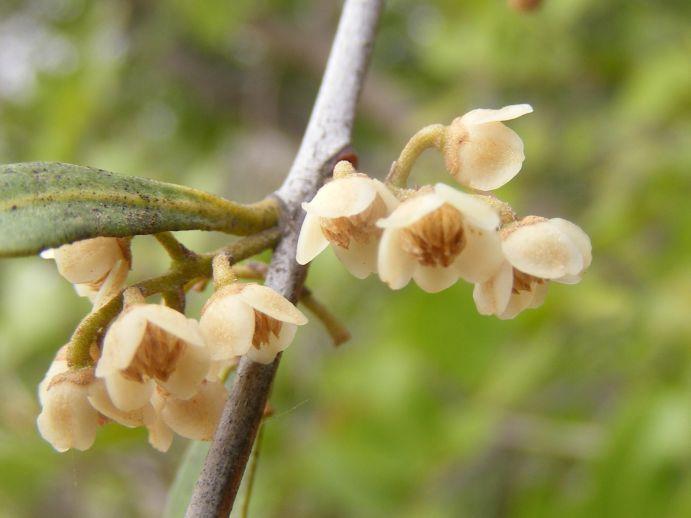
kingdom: Plantae
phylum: Tracheophyta
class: Magnoliopsida
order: Ericales
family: Ebenaceae
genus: Euclea
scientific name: Euclea divinorum
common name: Diamond-leaved euclea
